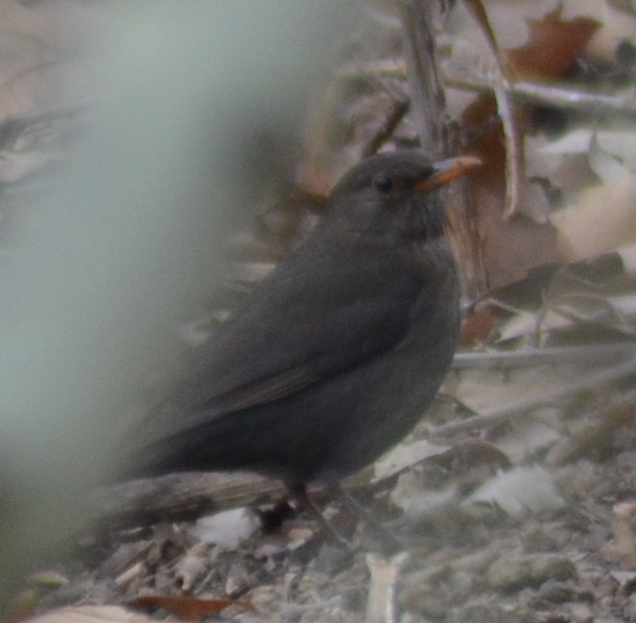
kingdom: Animalia
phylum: Chordata
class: Aves
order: Passeriformes
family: Turdidae
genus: Turdus
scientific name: Turdus merula
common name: Common blackbird
